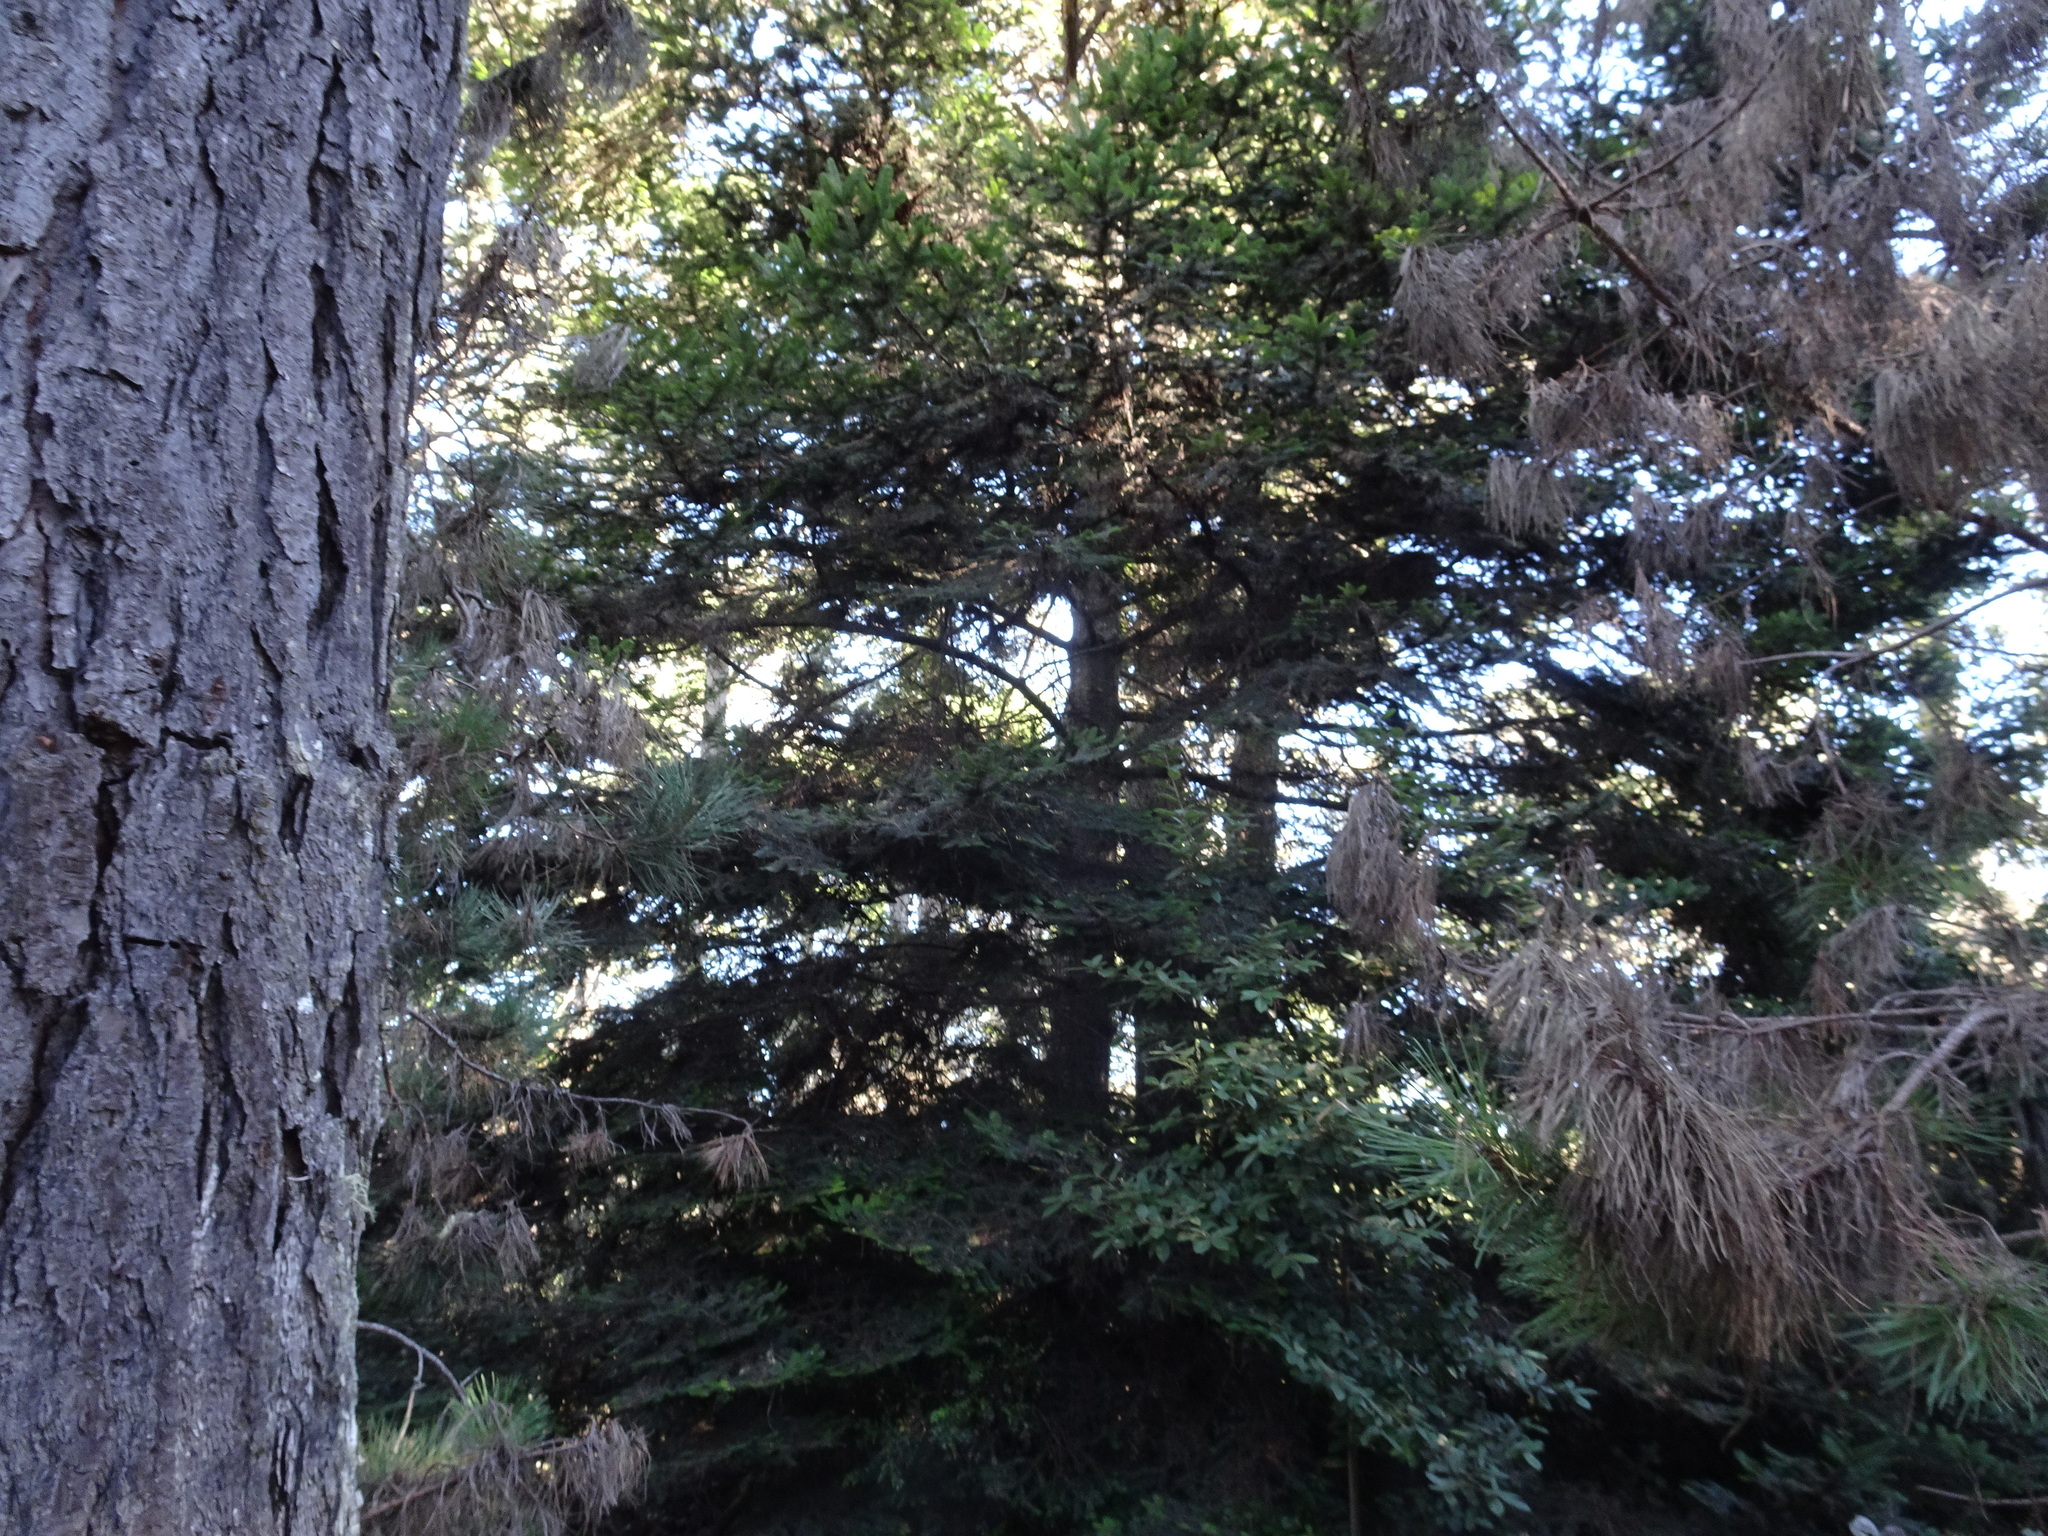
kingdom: Plantae
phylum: Tracheophyta
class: Pinopsida
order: Pinales
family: Pinaceae
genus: Pseudotsuga
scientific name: Pseudotsuga menziesii
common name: Douglas fir
